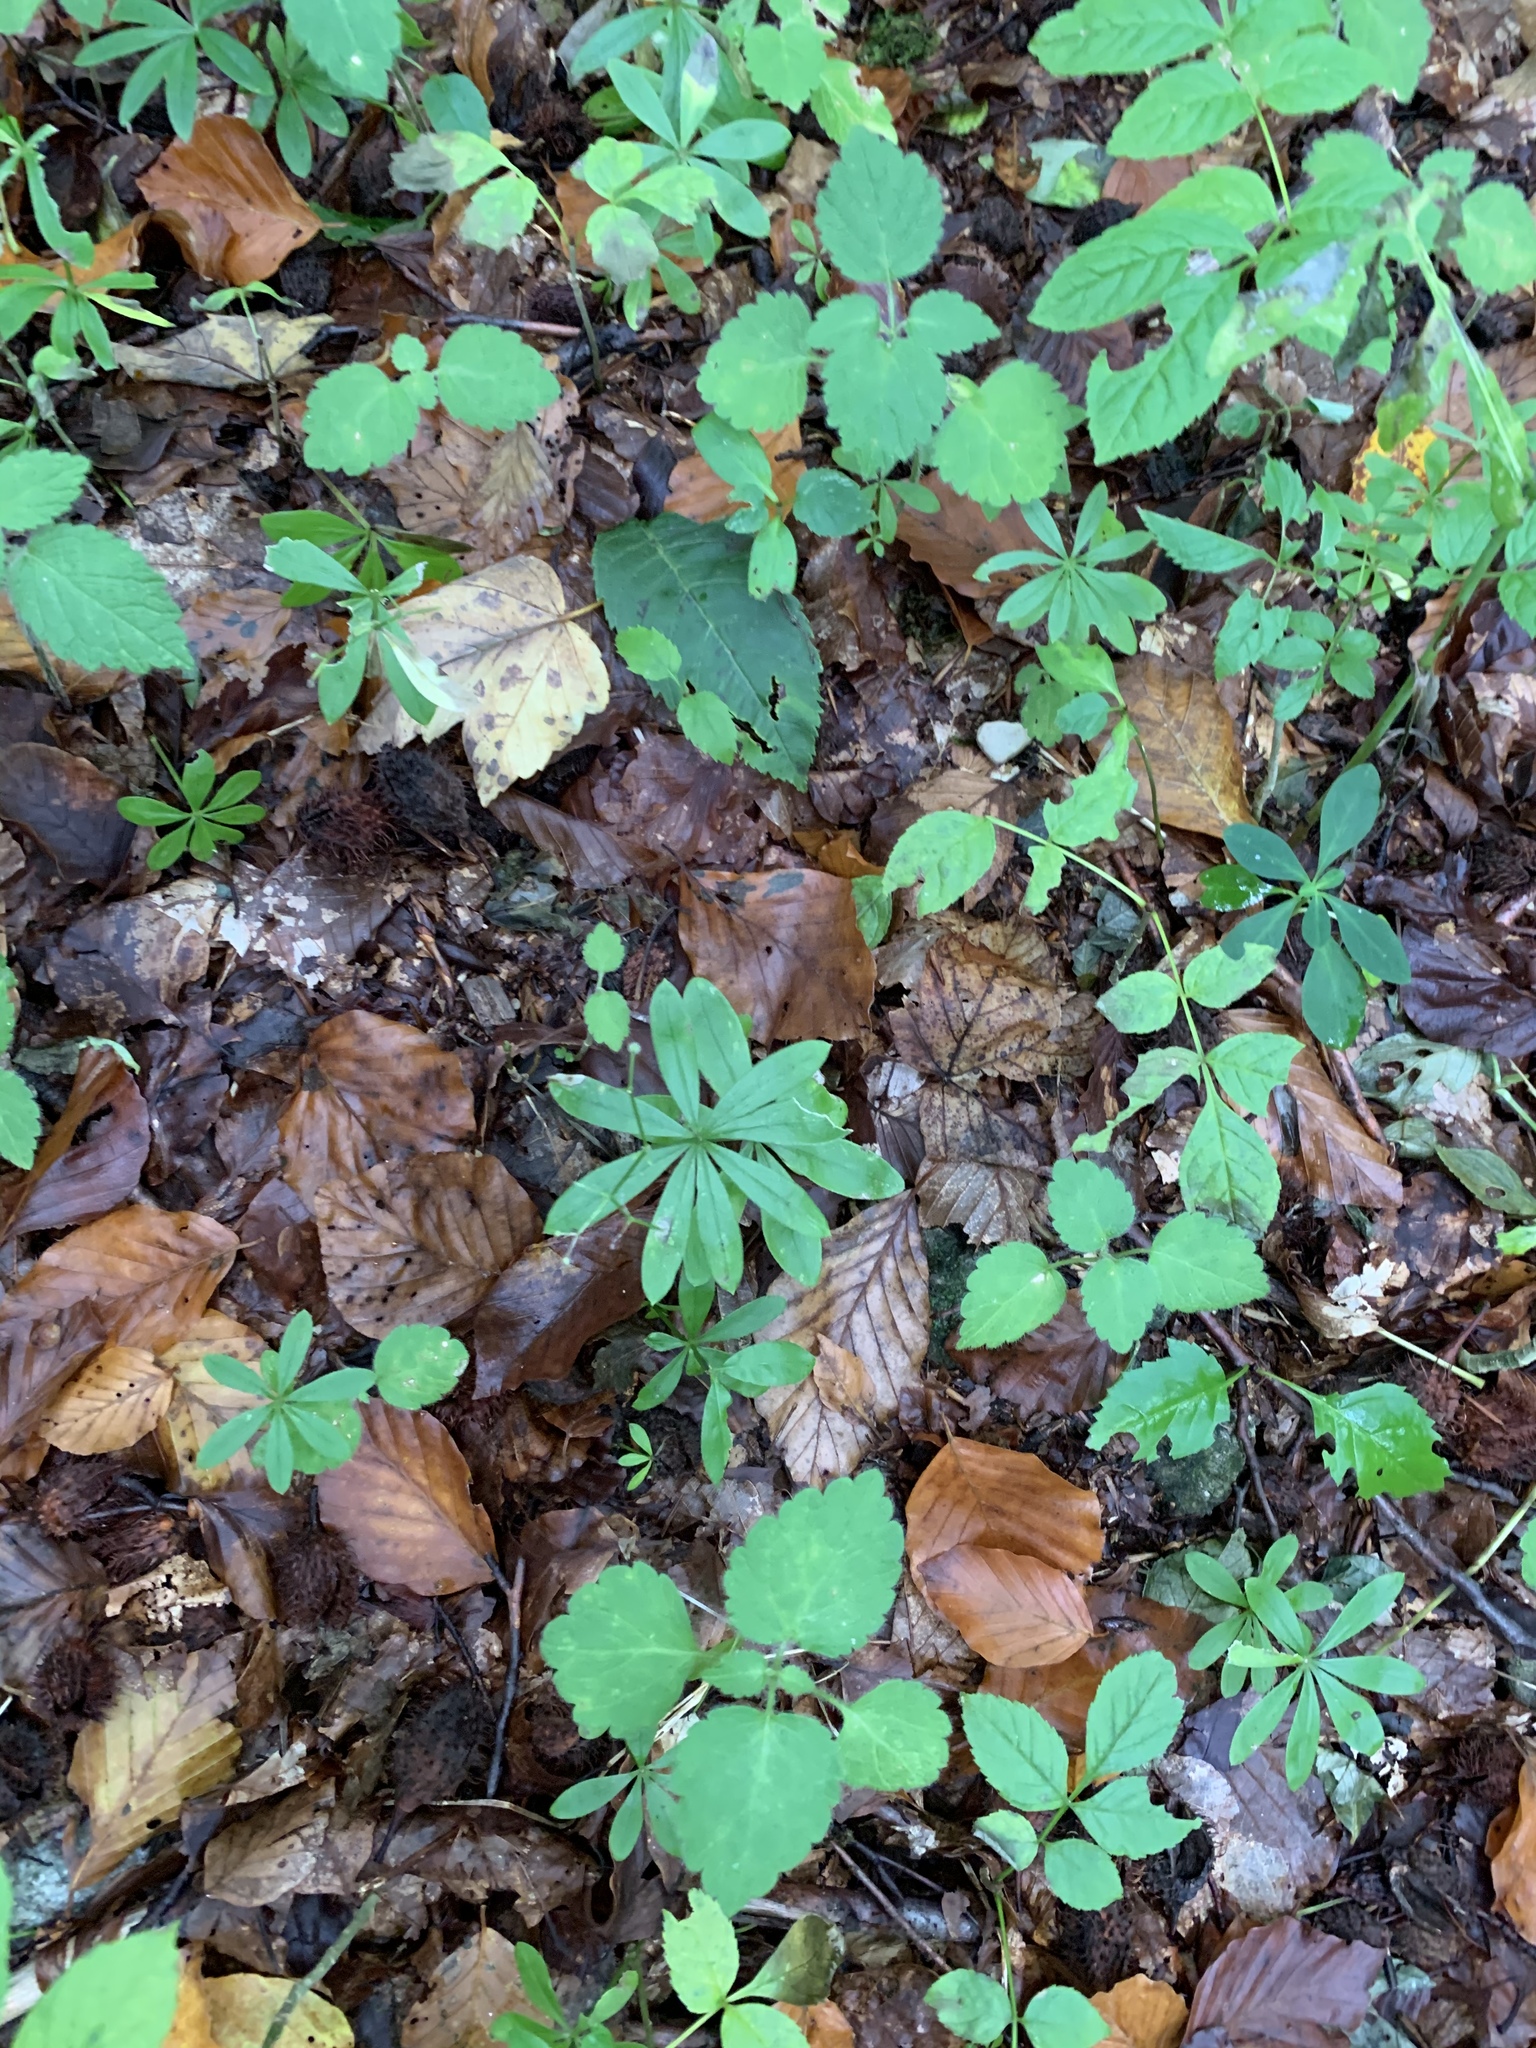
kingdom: Plantae
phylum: Tracheophyta
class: Magnoliopsida
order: Gentianales
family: Rubiaceae
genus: Galium
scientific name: Galium odoratum
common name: Sweet woodruff
